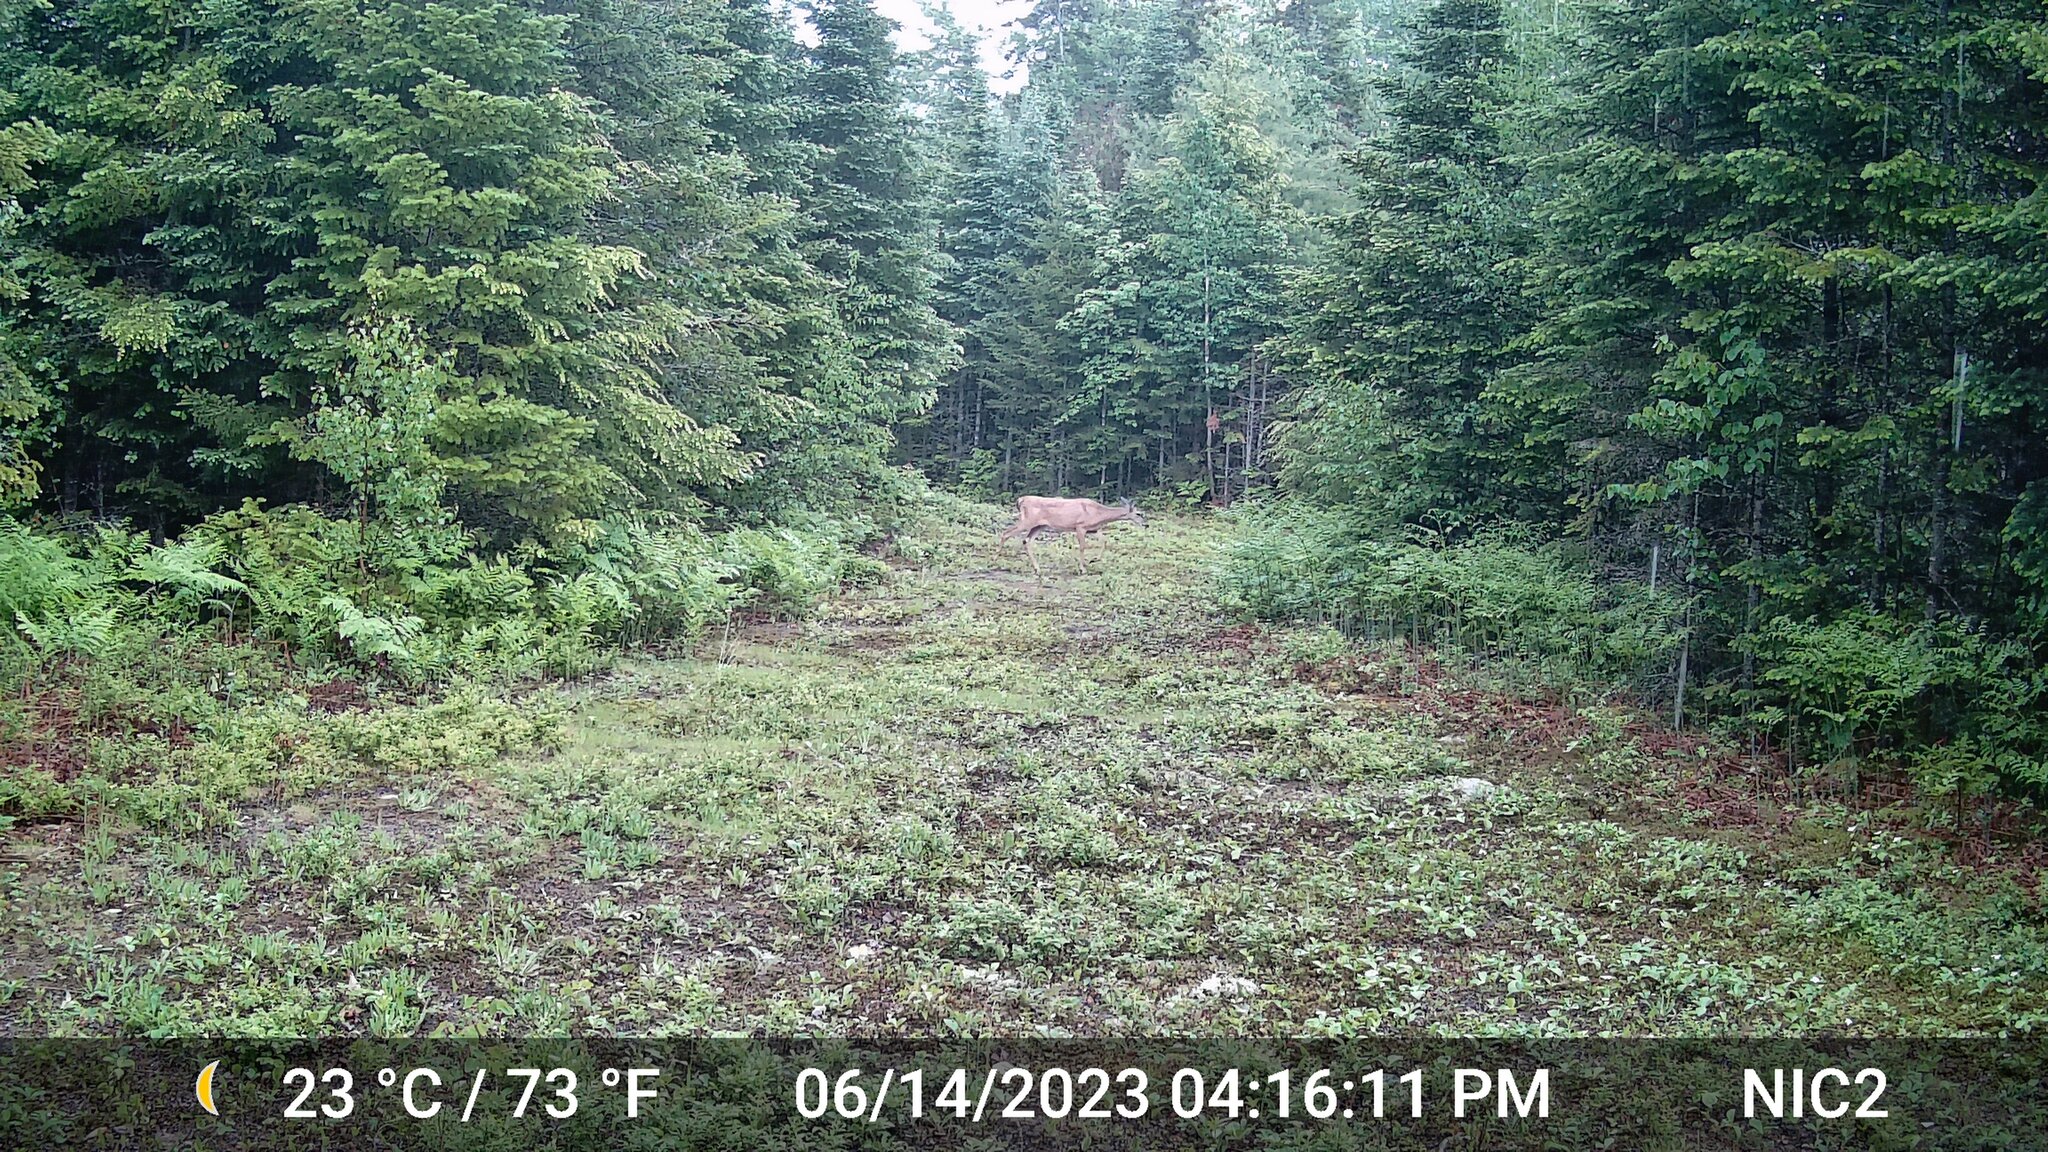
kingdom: Animalia
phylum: Chordata
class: Mammalia
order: Artiodactyla
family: Cervidae
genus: Odocoileus
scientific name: Odocoileus virginianus
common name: White-tailed deer
